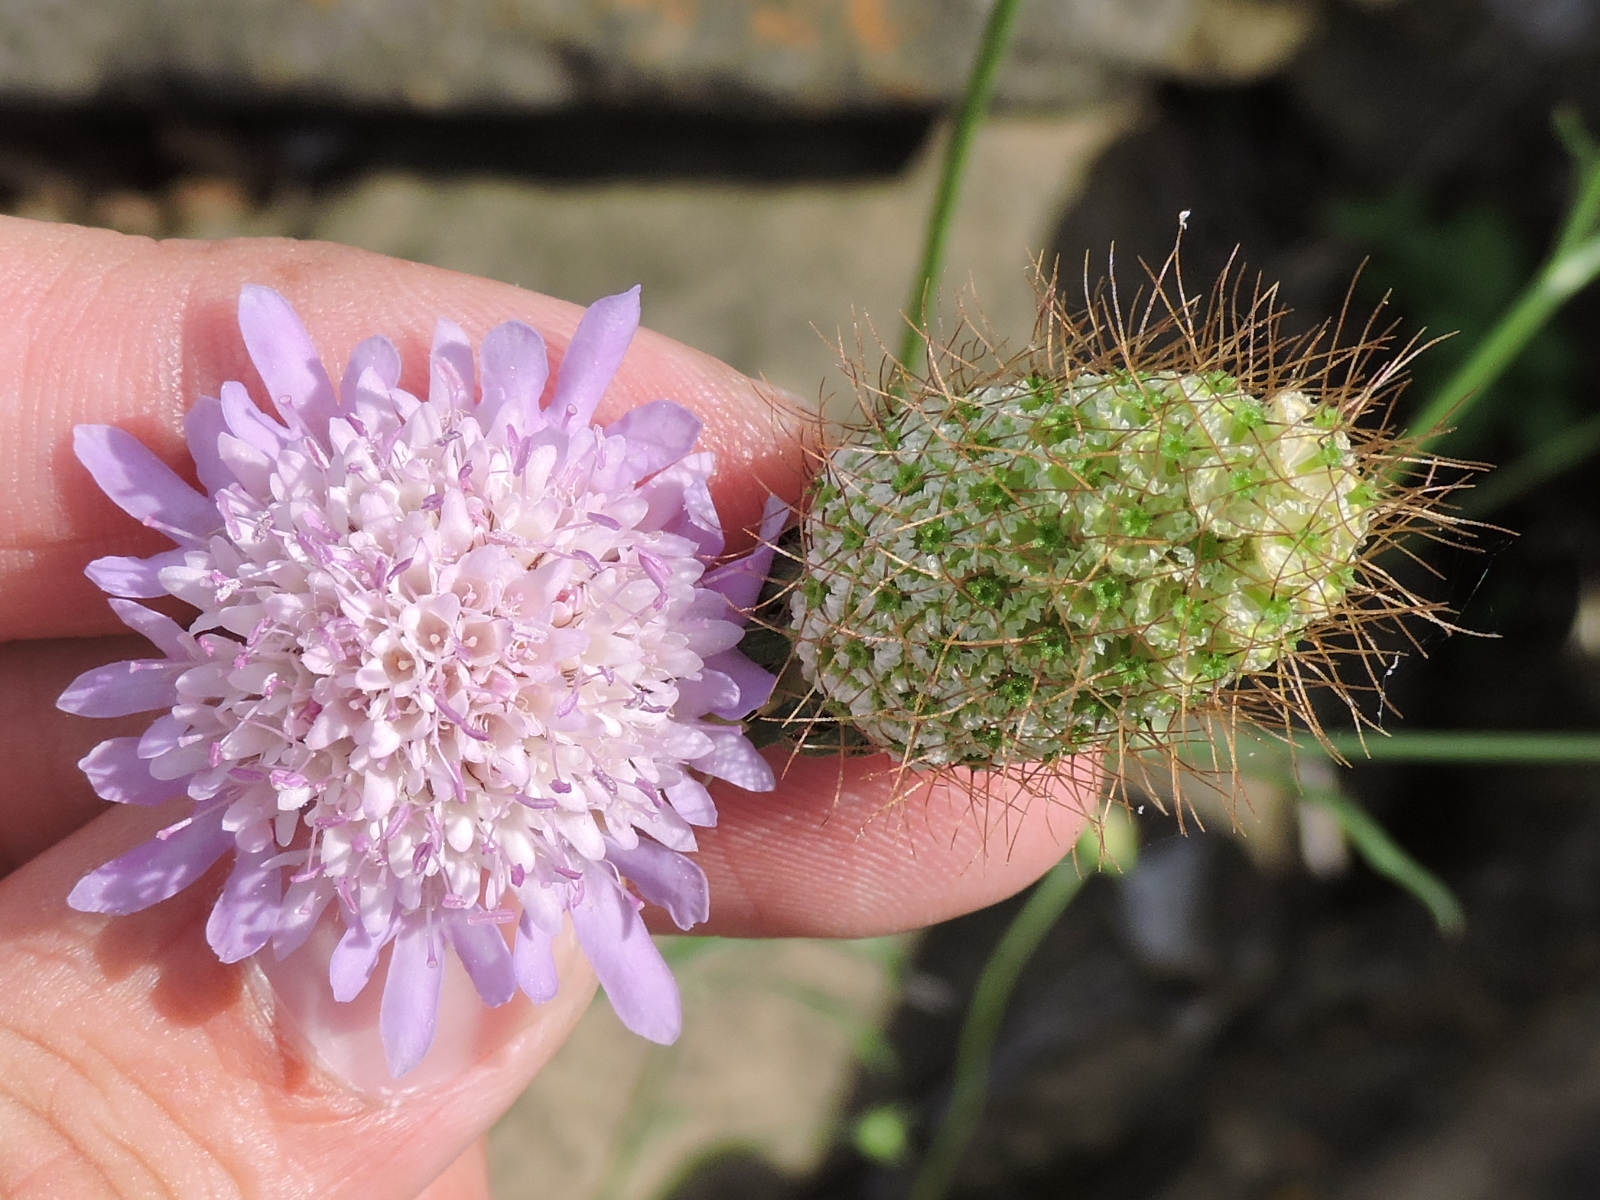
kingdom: Plantae
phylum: Tracheophyta
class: Magnoliopsida
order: Dipsacales
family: Caprifoliaceae
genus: Sixalix
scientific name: Sixalix atropurpurea
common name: Sweet scabious
